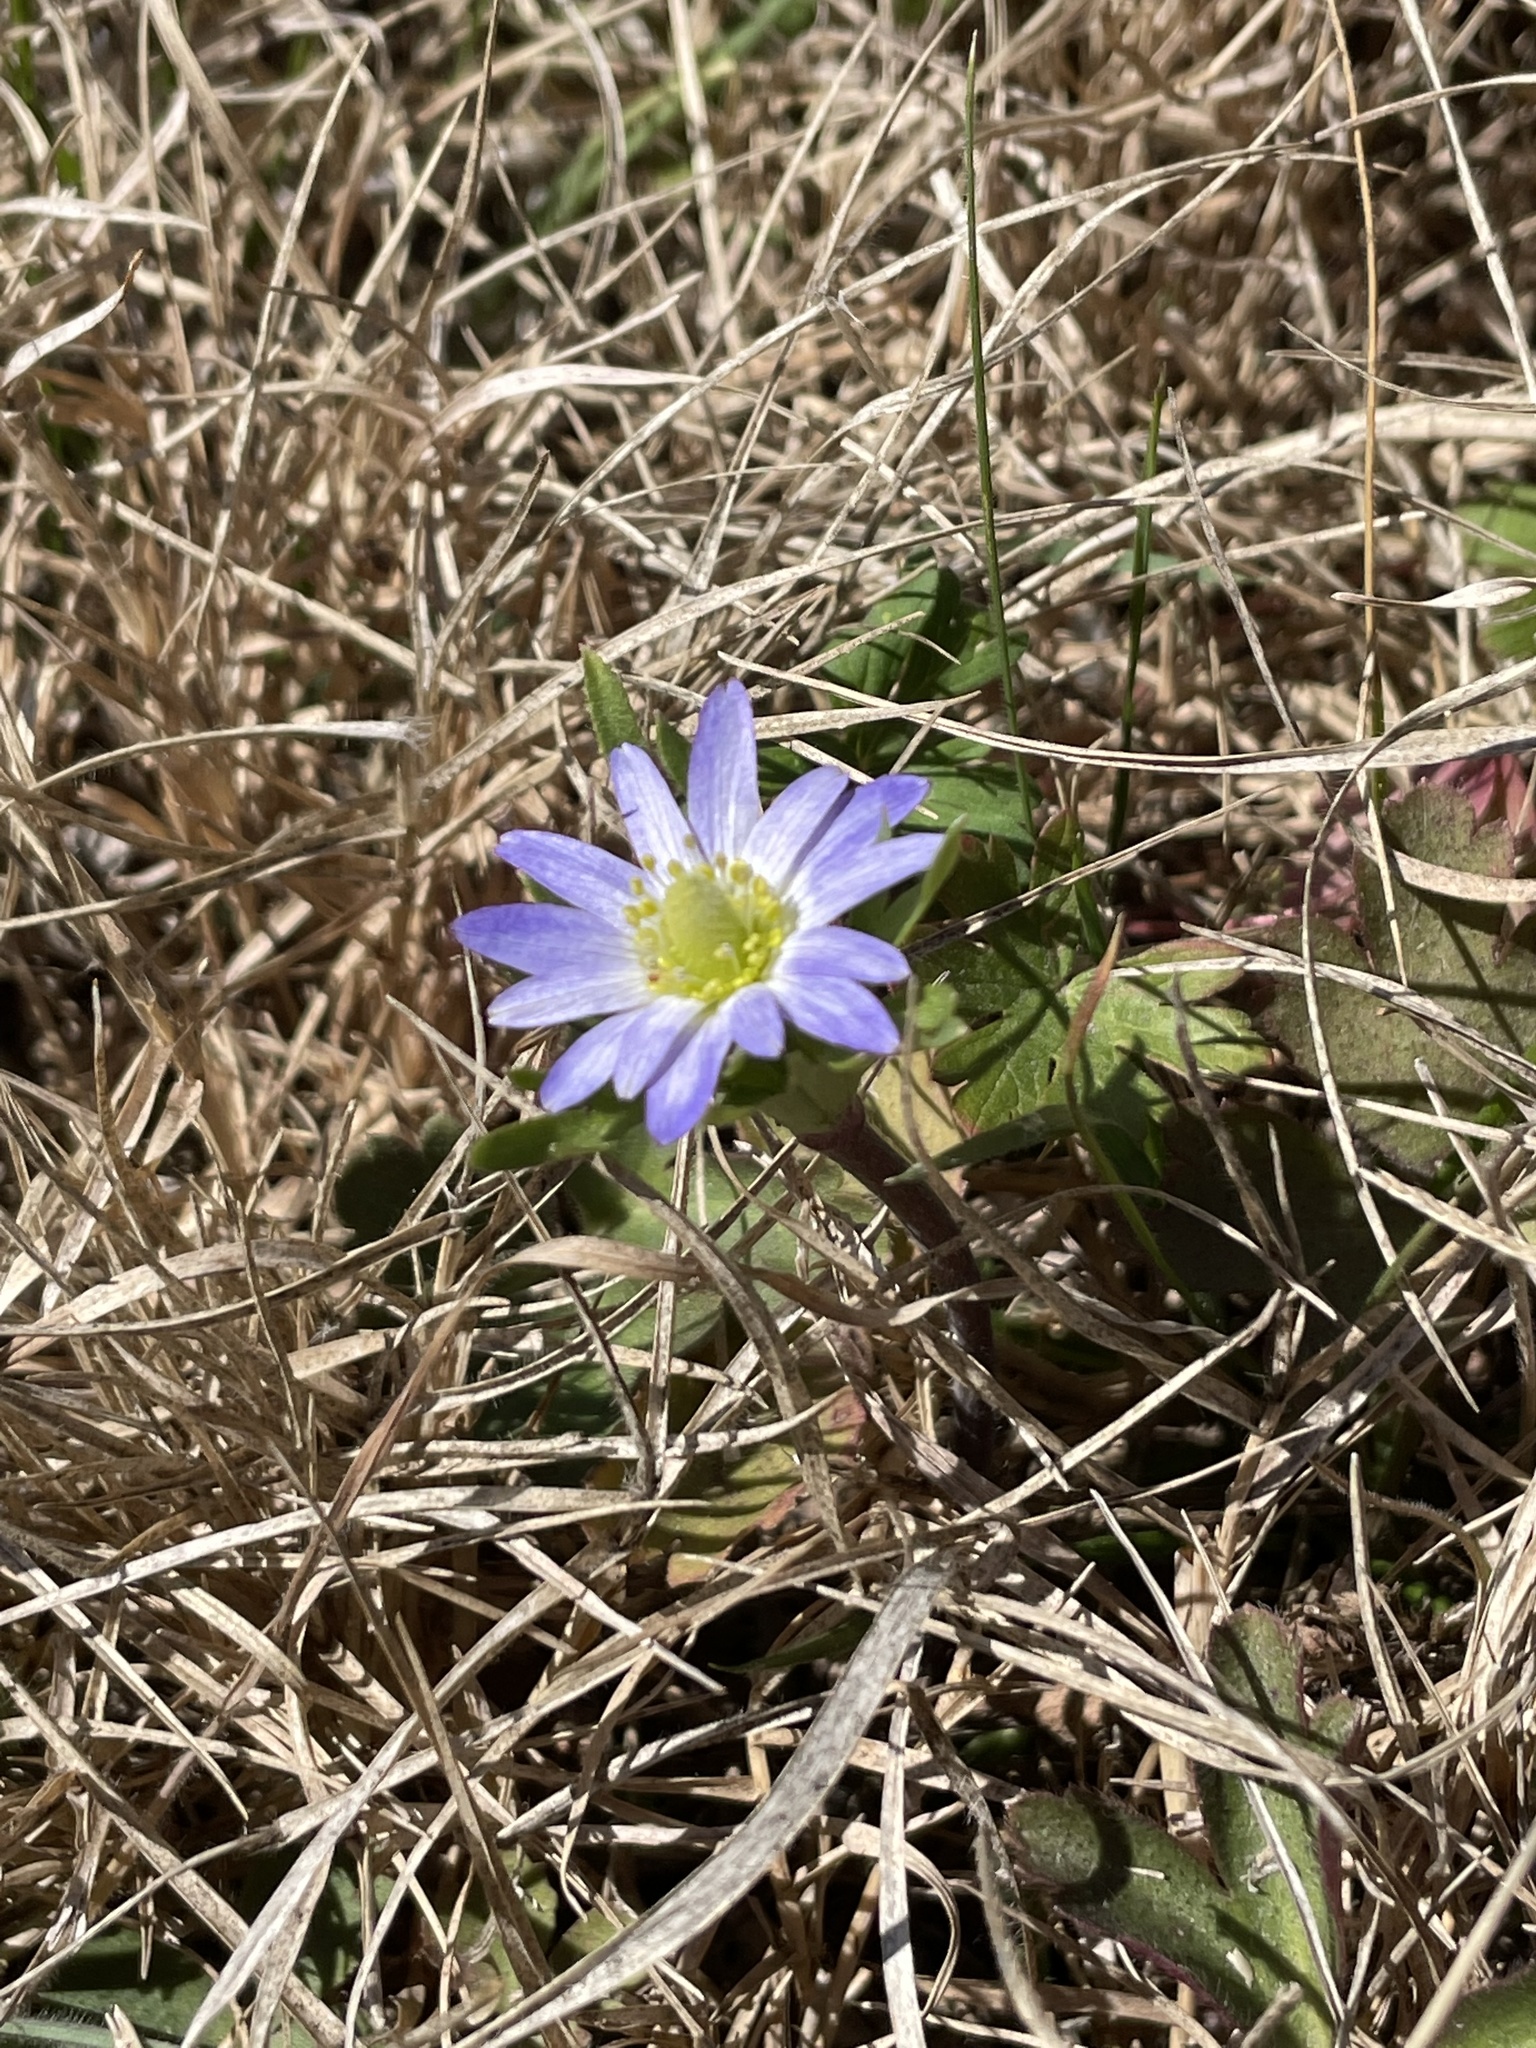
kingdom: Plantae
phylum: Tracheophyta
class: Magnoliopsida
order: Ranunculales
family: Ranunculaceae
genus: Anemone
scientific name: Anemone berlandieri
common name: Ten-petal anemone
